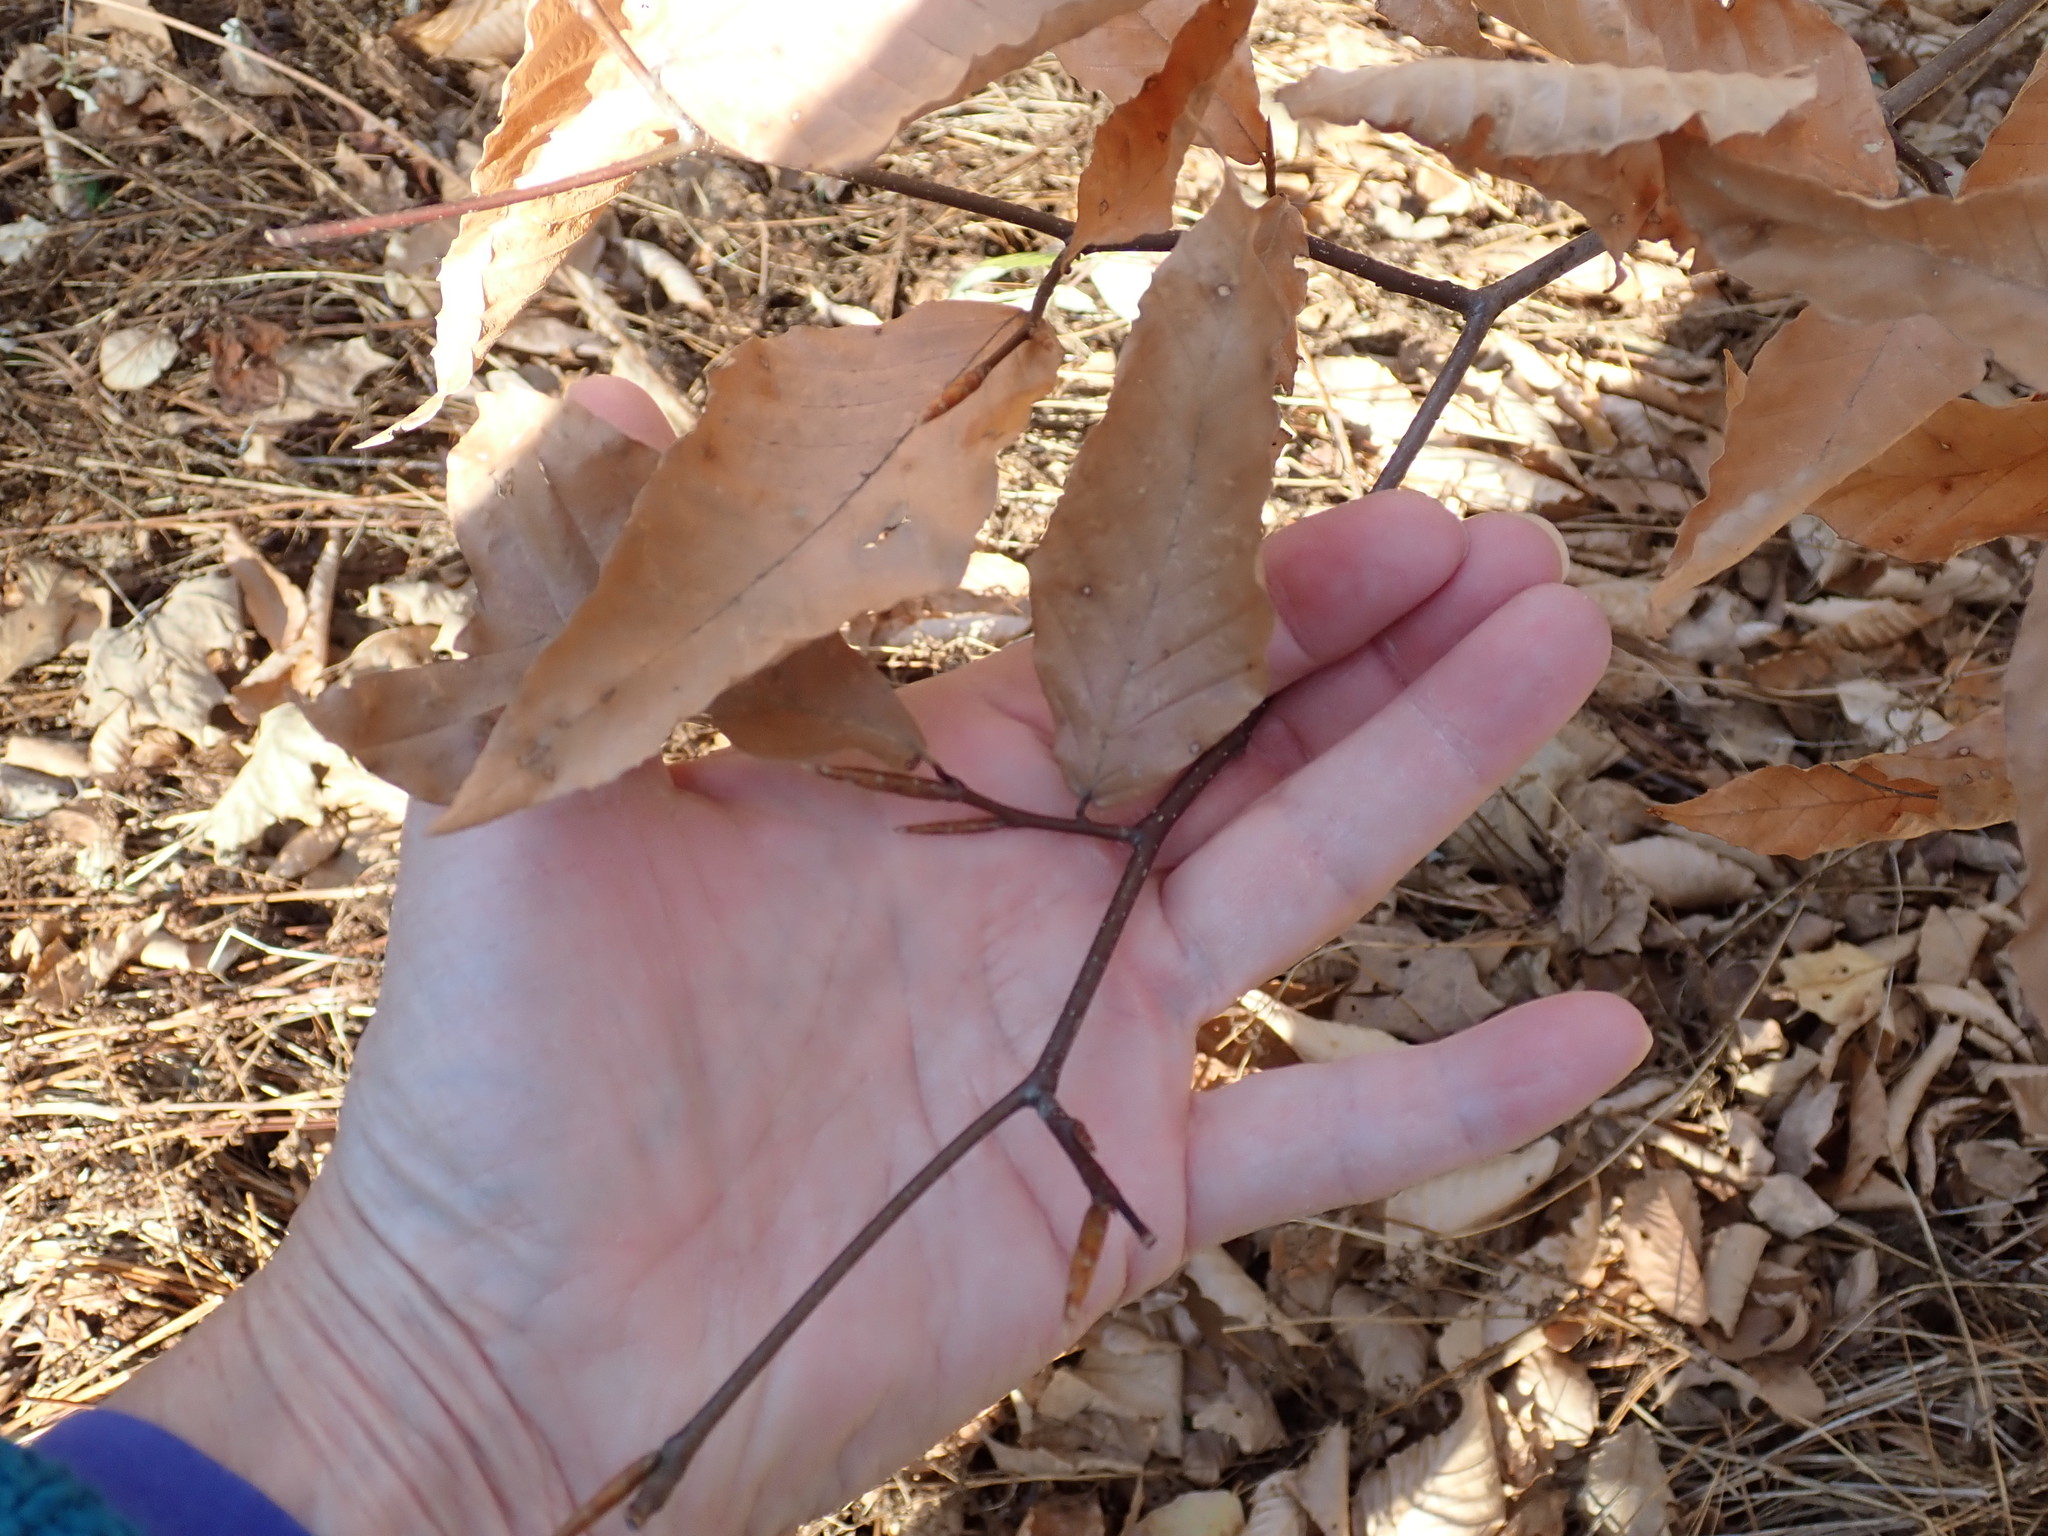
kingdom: Plantae
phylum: Tracheophyta
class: Magnoliopsida
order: Fagales
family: Fagaceae
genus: Fagus
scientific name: Fagus grandifolia
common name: American beech
